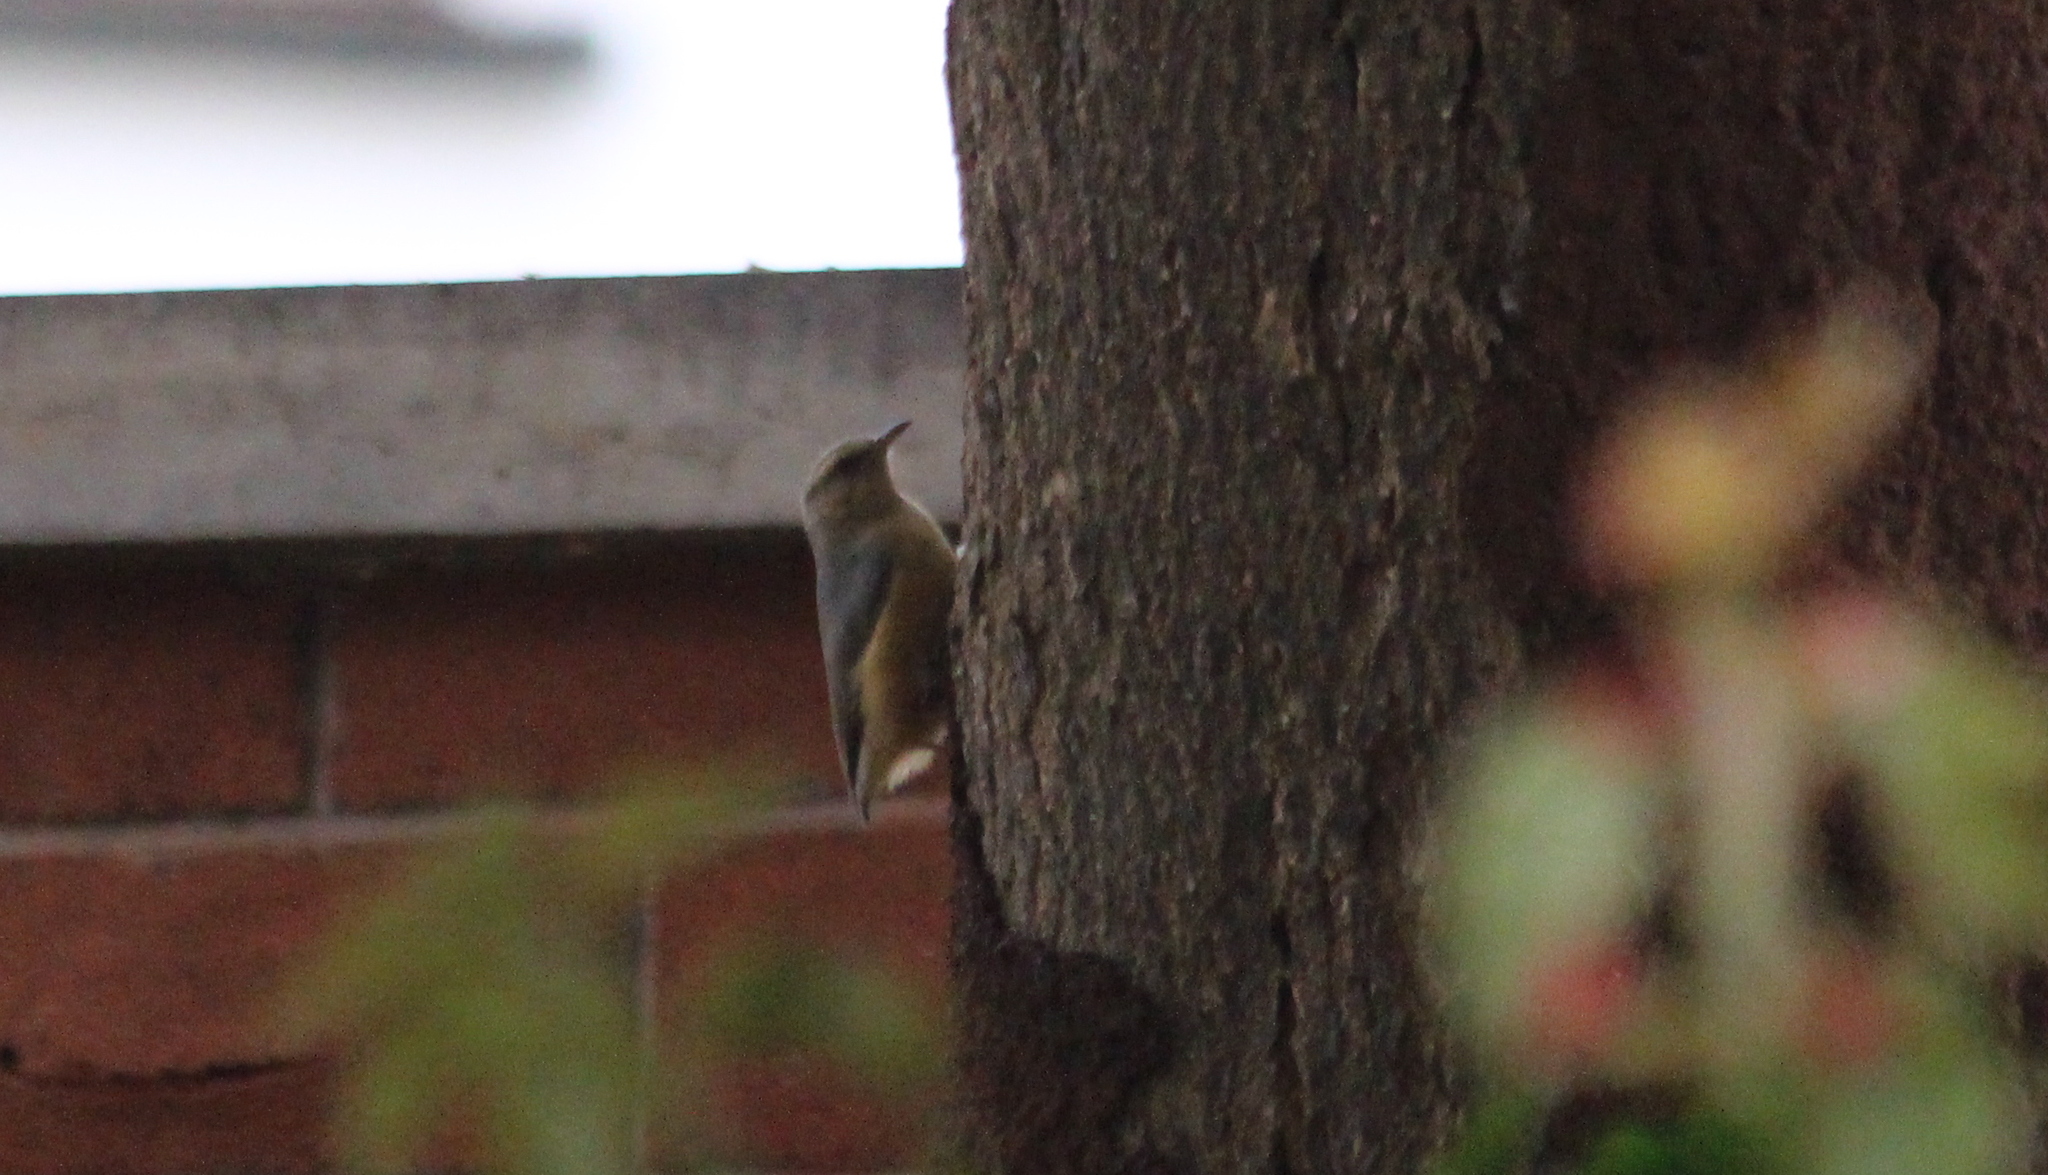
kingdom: Animalia
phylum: Chordata
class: Aves
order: Passeriformes
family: Macrosphenidae
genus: Sylvietta
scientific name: Sylvietta rufescens
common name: Long-billed crombec
